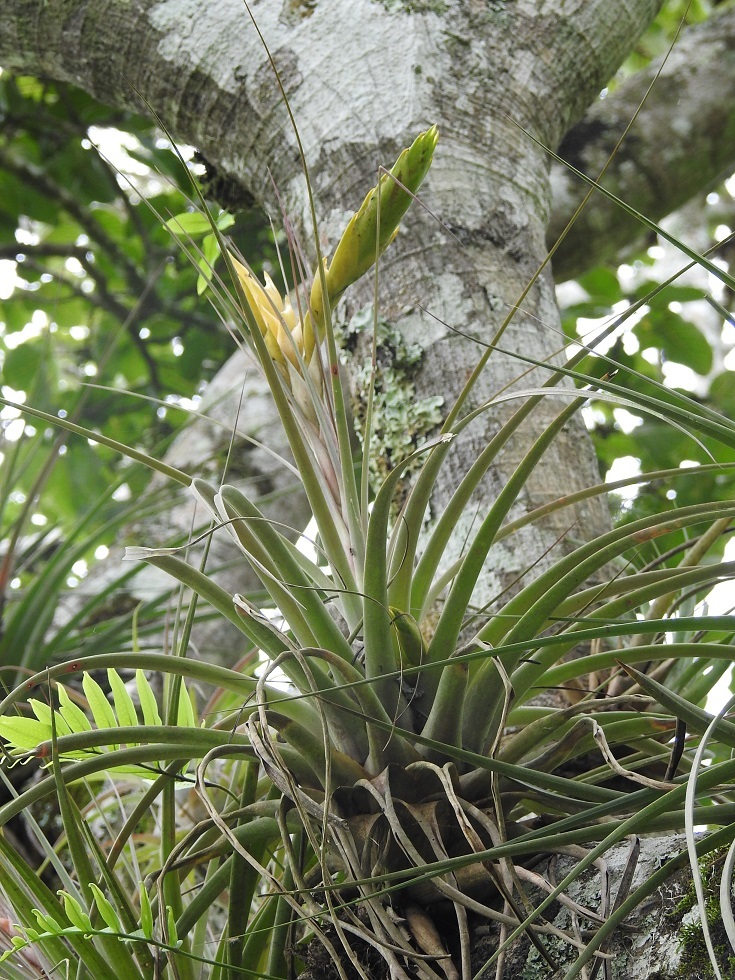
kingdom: Plantae
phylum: Tracheophyta
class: Liliopsida
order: Poales
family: Bromeliaceae
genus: Tillandsia
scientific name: Tillandsia flavobracteata
